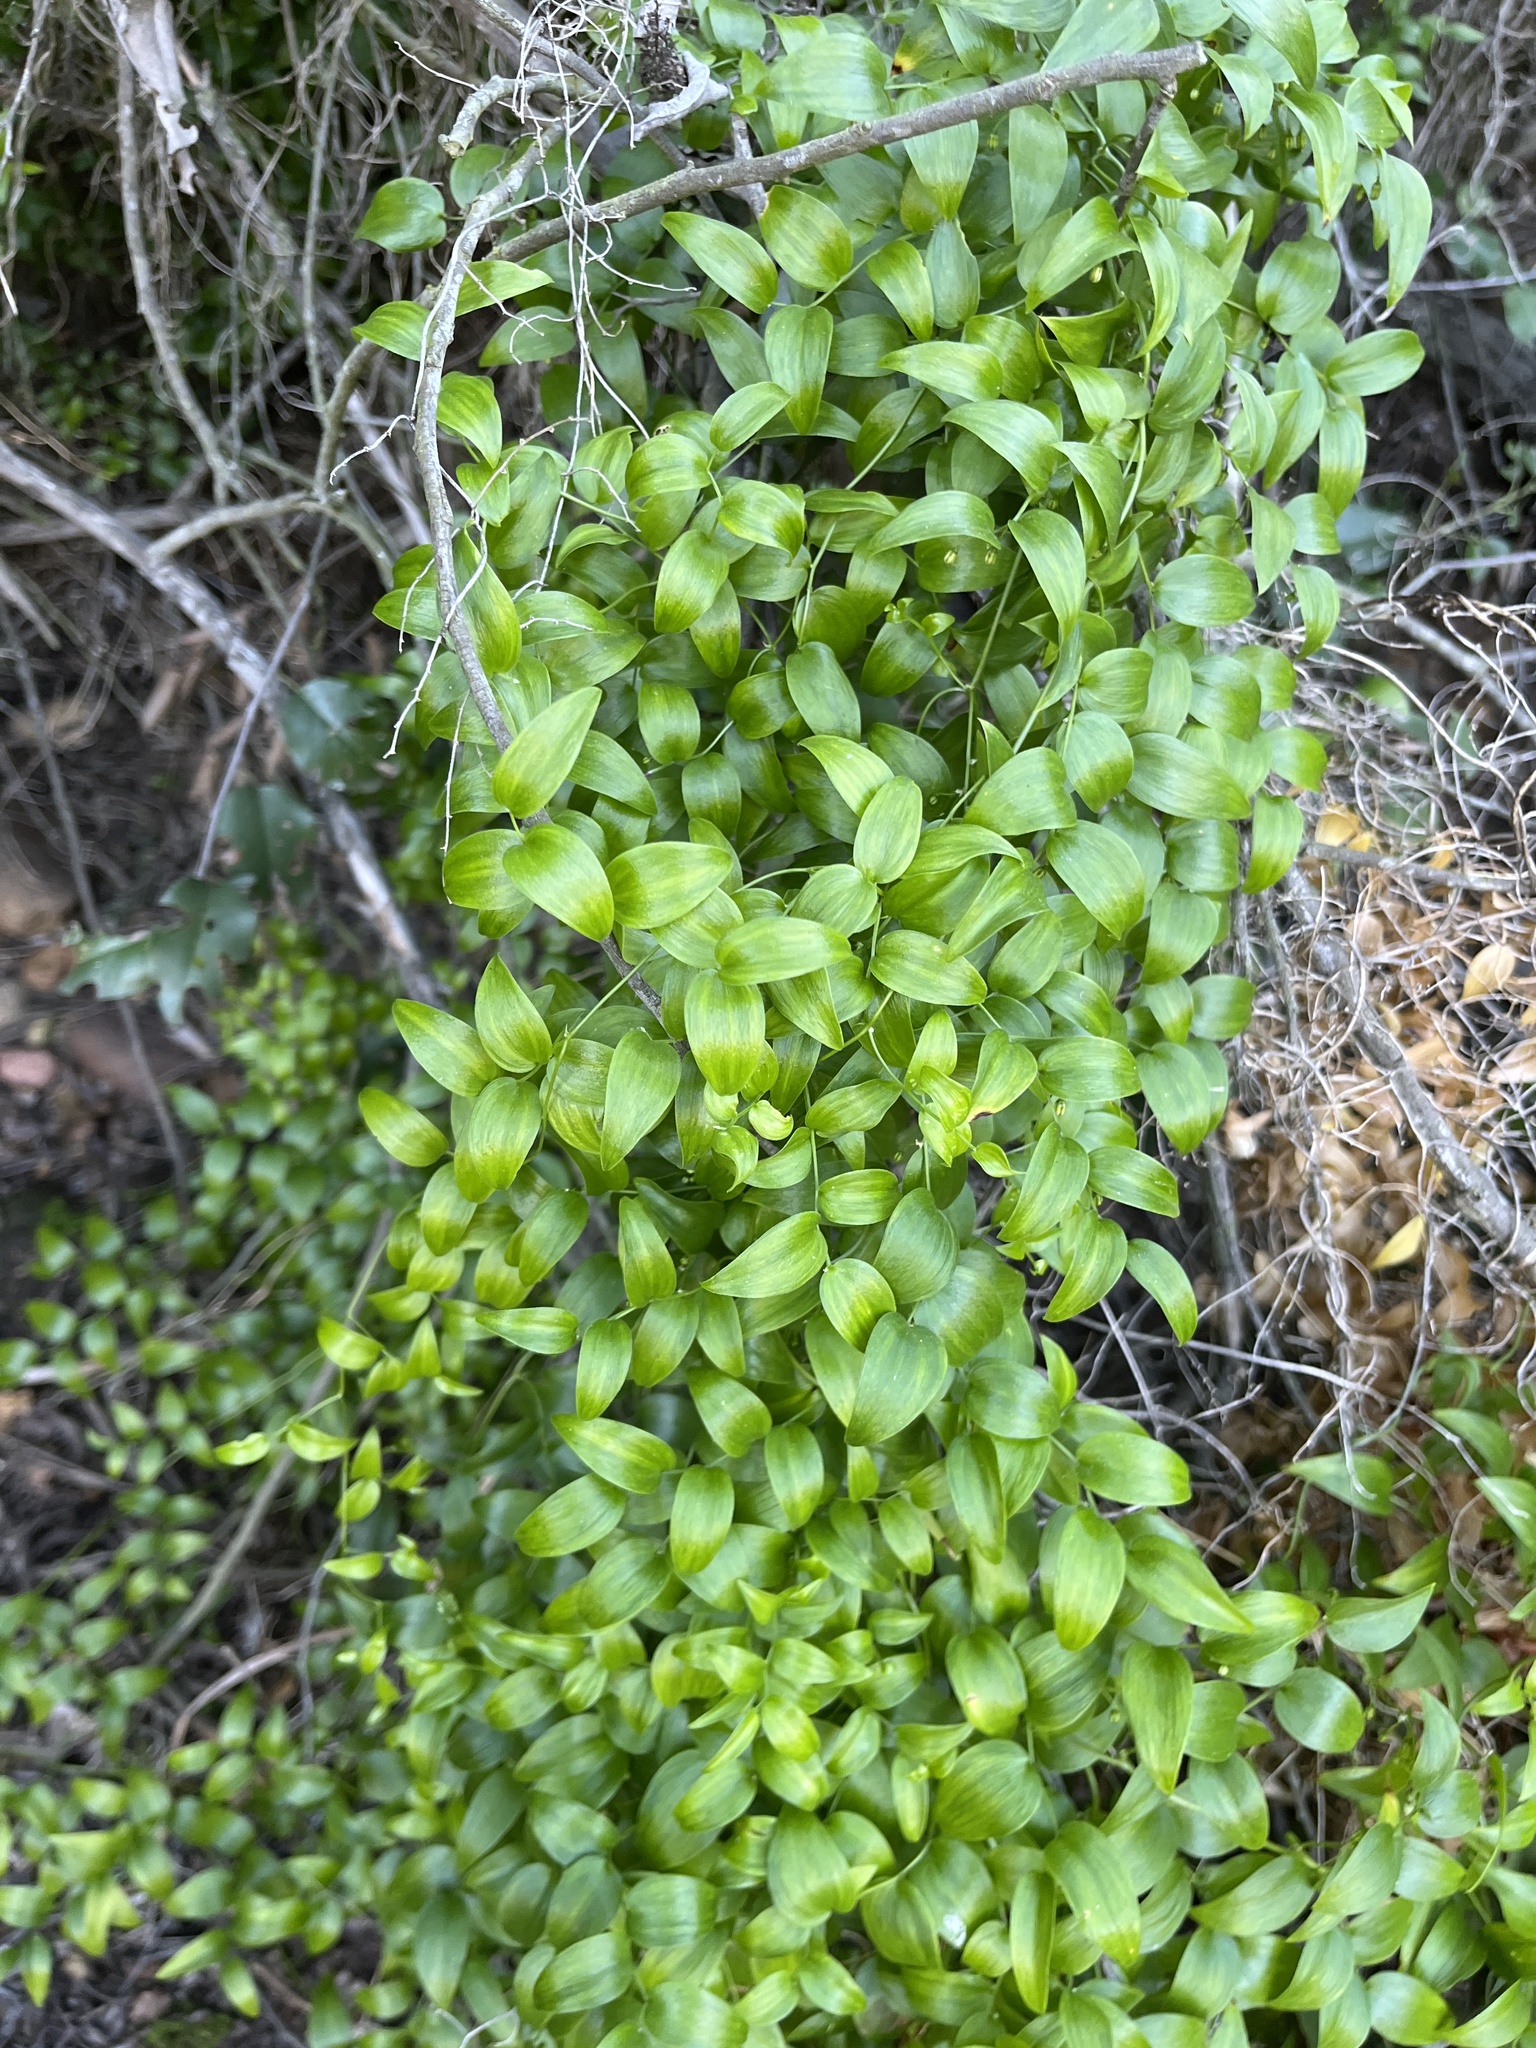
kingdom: Plantae
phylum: Tracheophyta
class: Liliopsida
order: Asparagales
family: Asparagaceae
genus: Asparagus
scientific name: Asparagus asparagoides
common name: African asparagus fern
